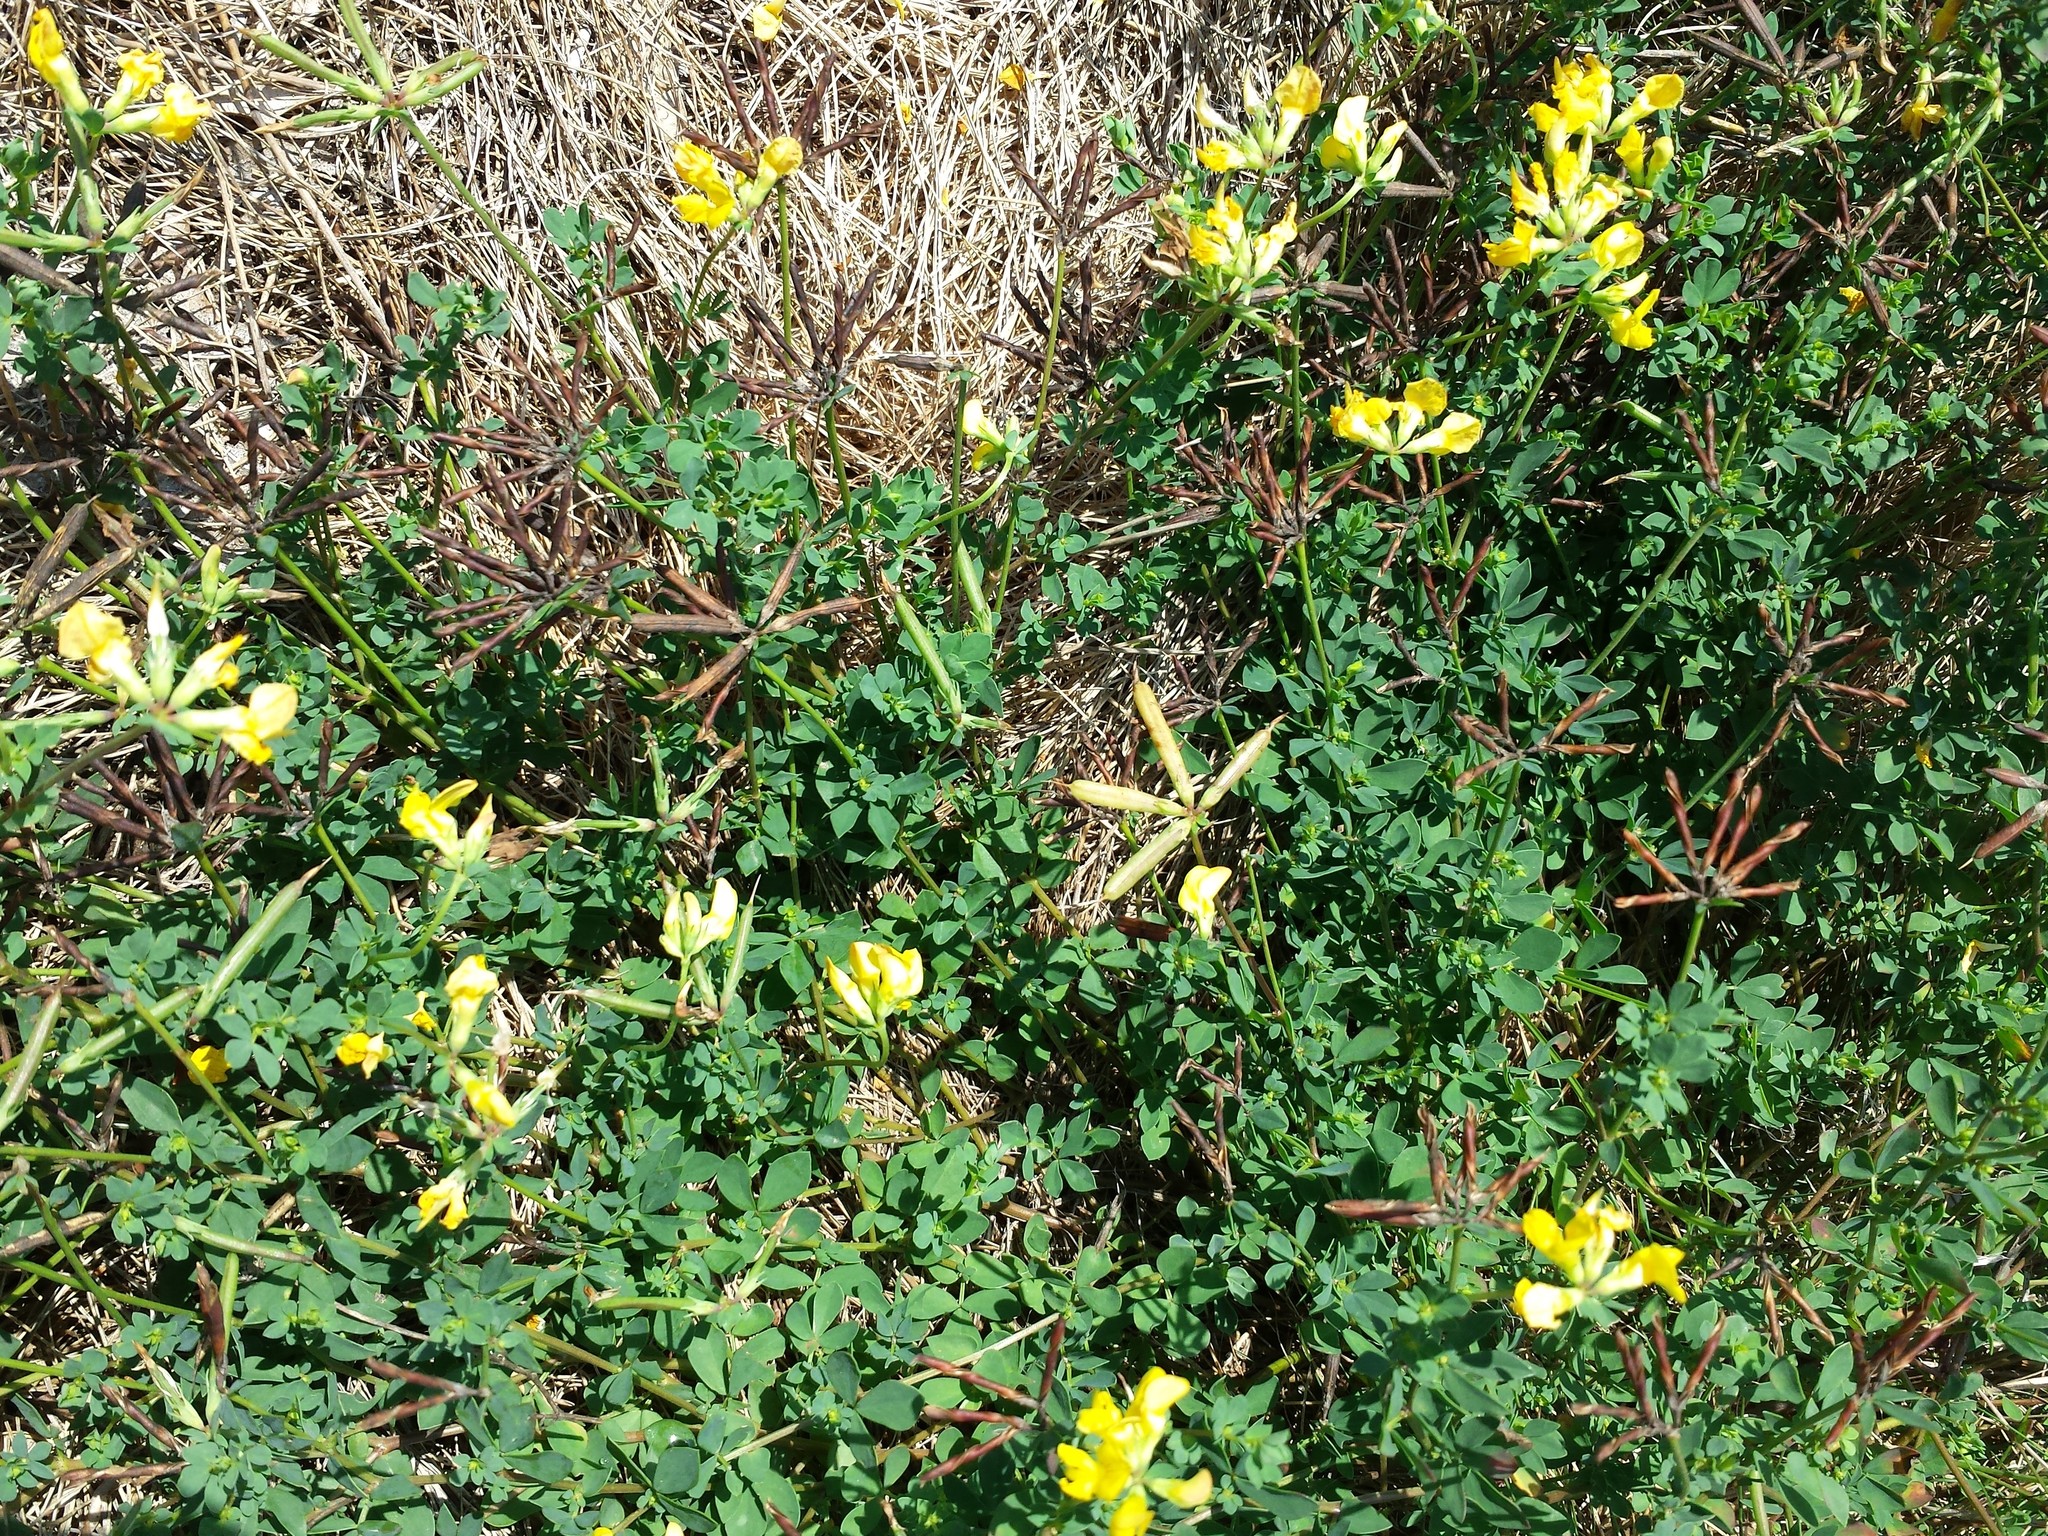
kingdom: Plantae
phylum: Tracheophyta
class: Magnoliopsida
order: Fabales
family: Fabaceae
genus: Lotus
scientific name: Lotus corniculatus
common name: Common bird's-foot-trefoil
